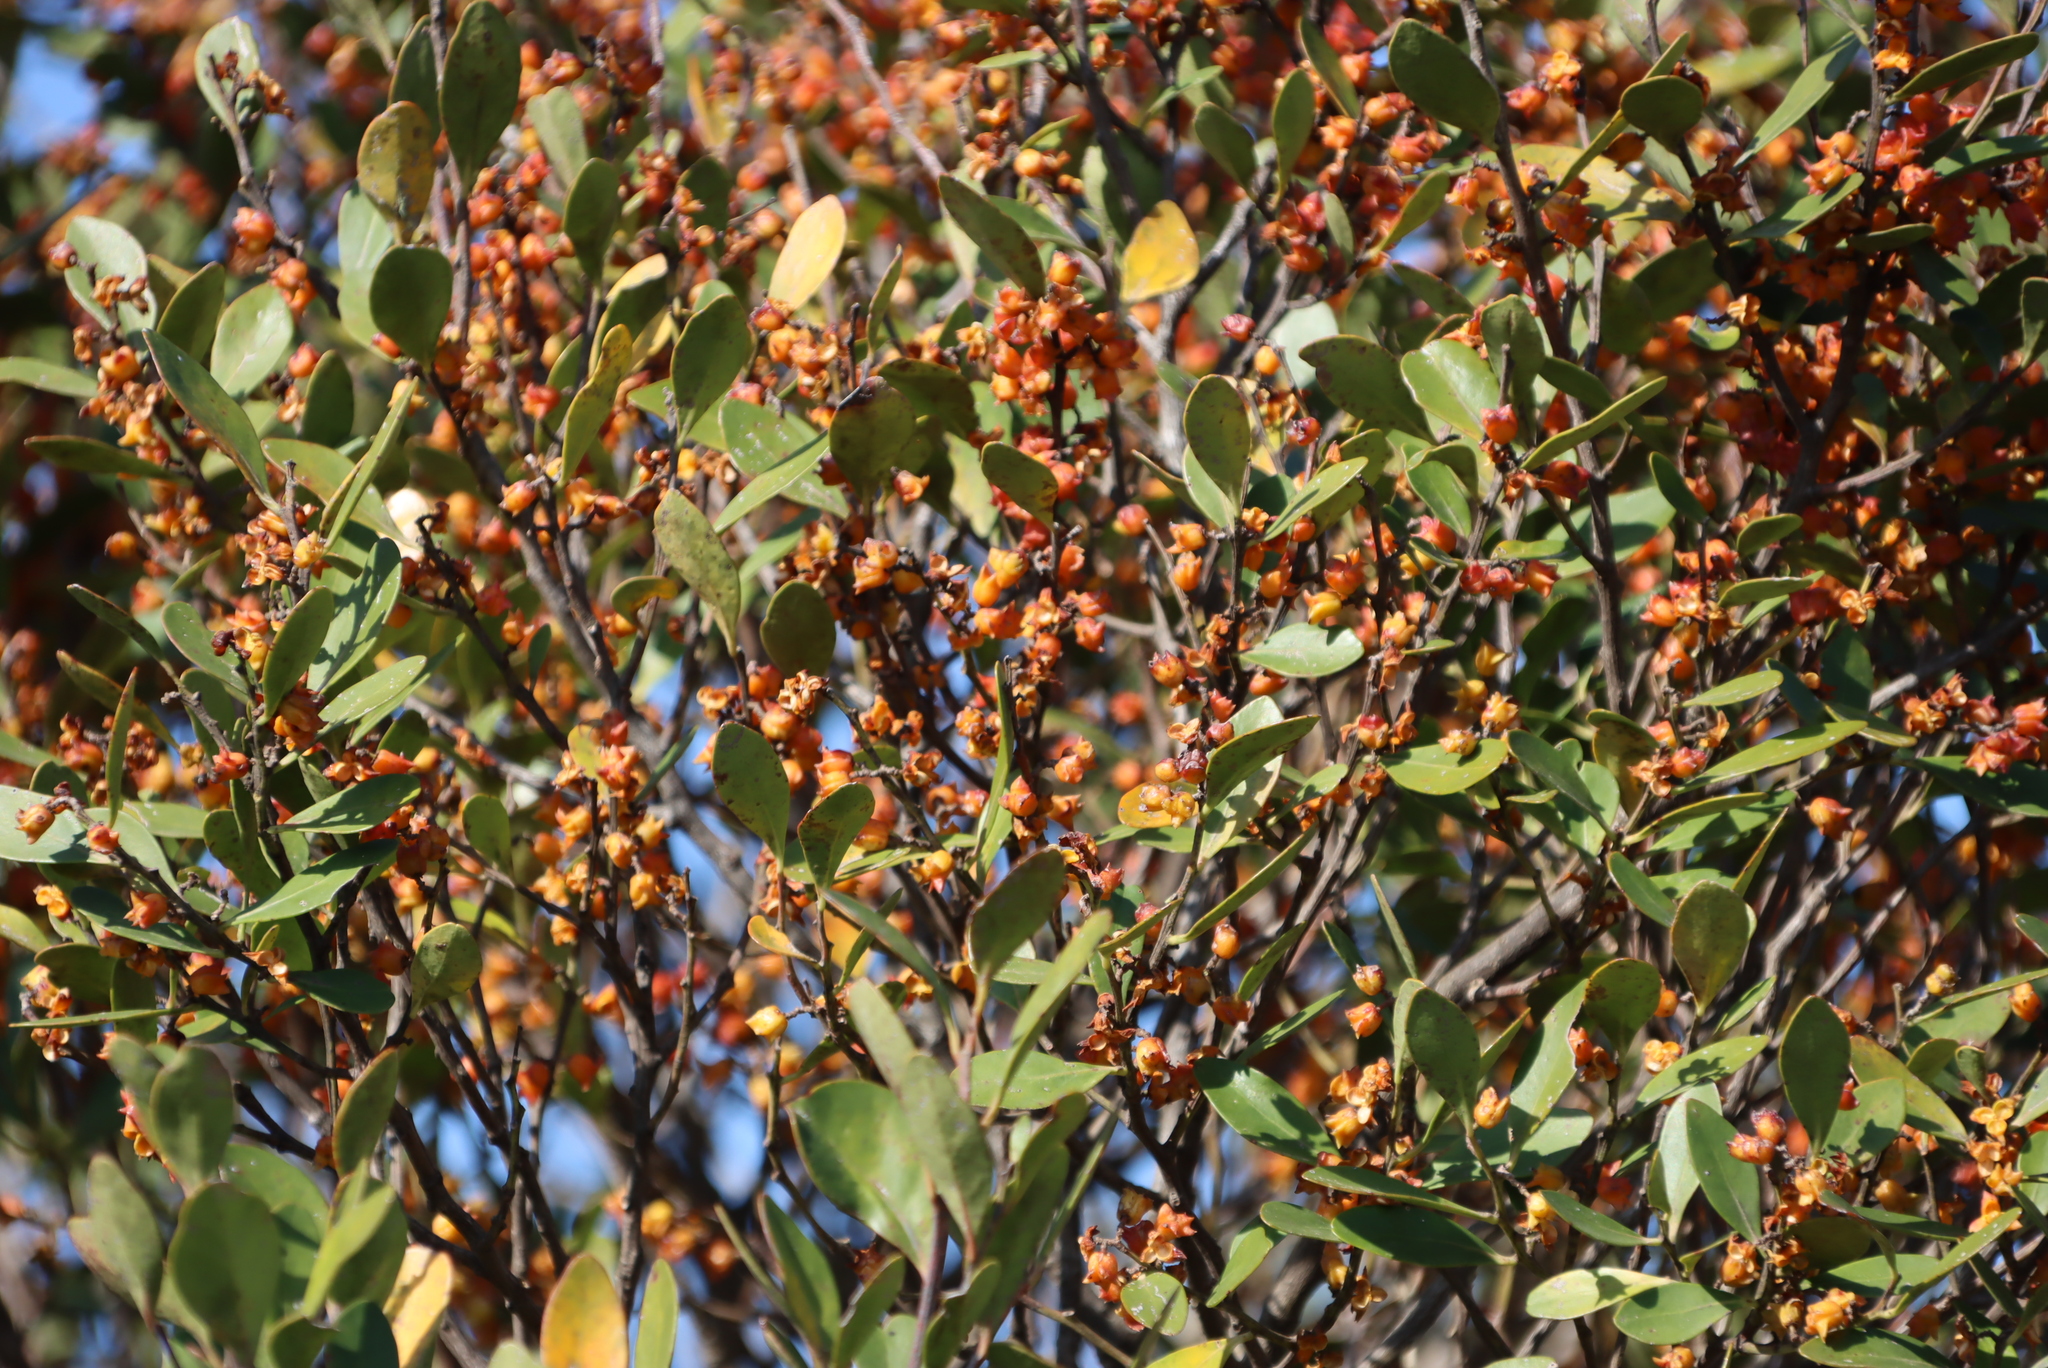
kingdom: Plantae
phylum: Tracheophyta
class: Magnoliopsida
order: Celastrales
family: Celastraceae
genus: Pterocelastrus
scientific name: Pterocelastrus tricuspidatus
